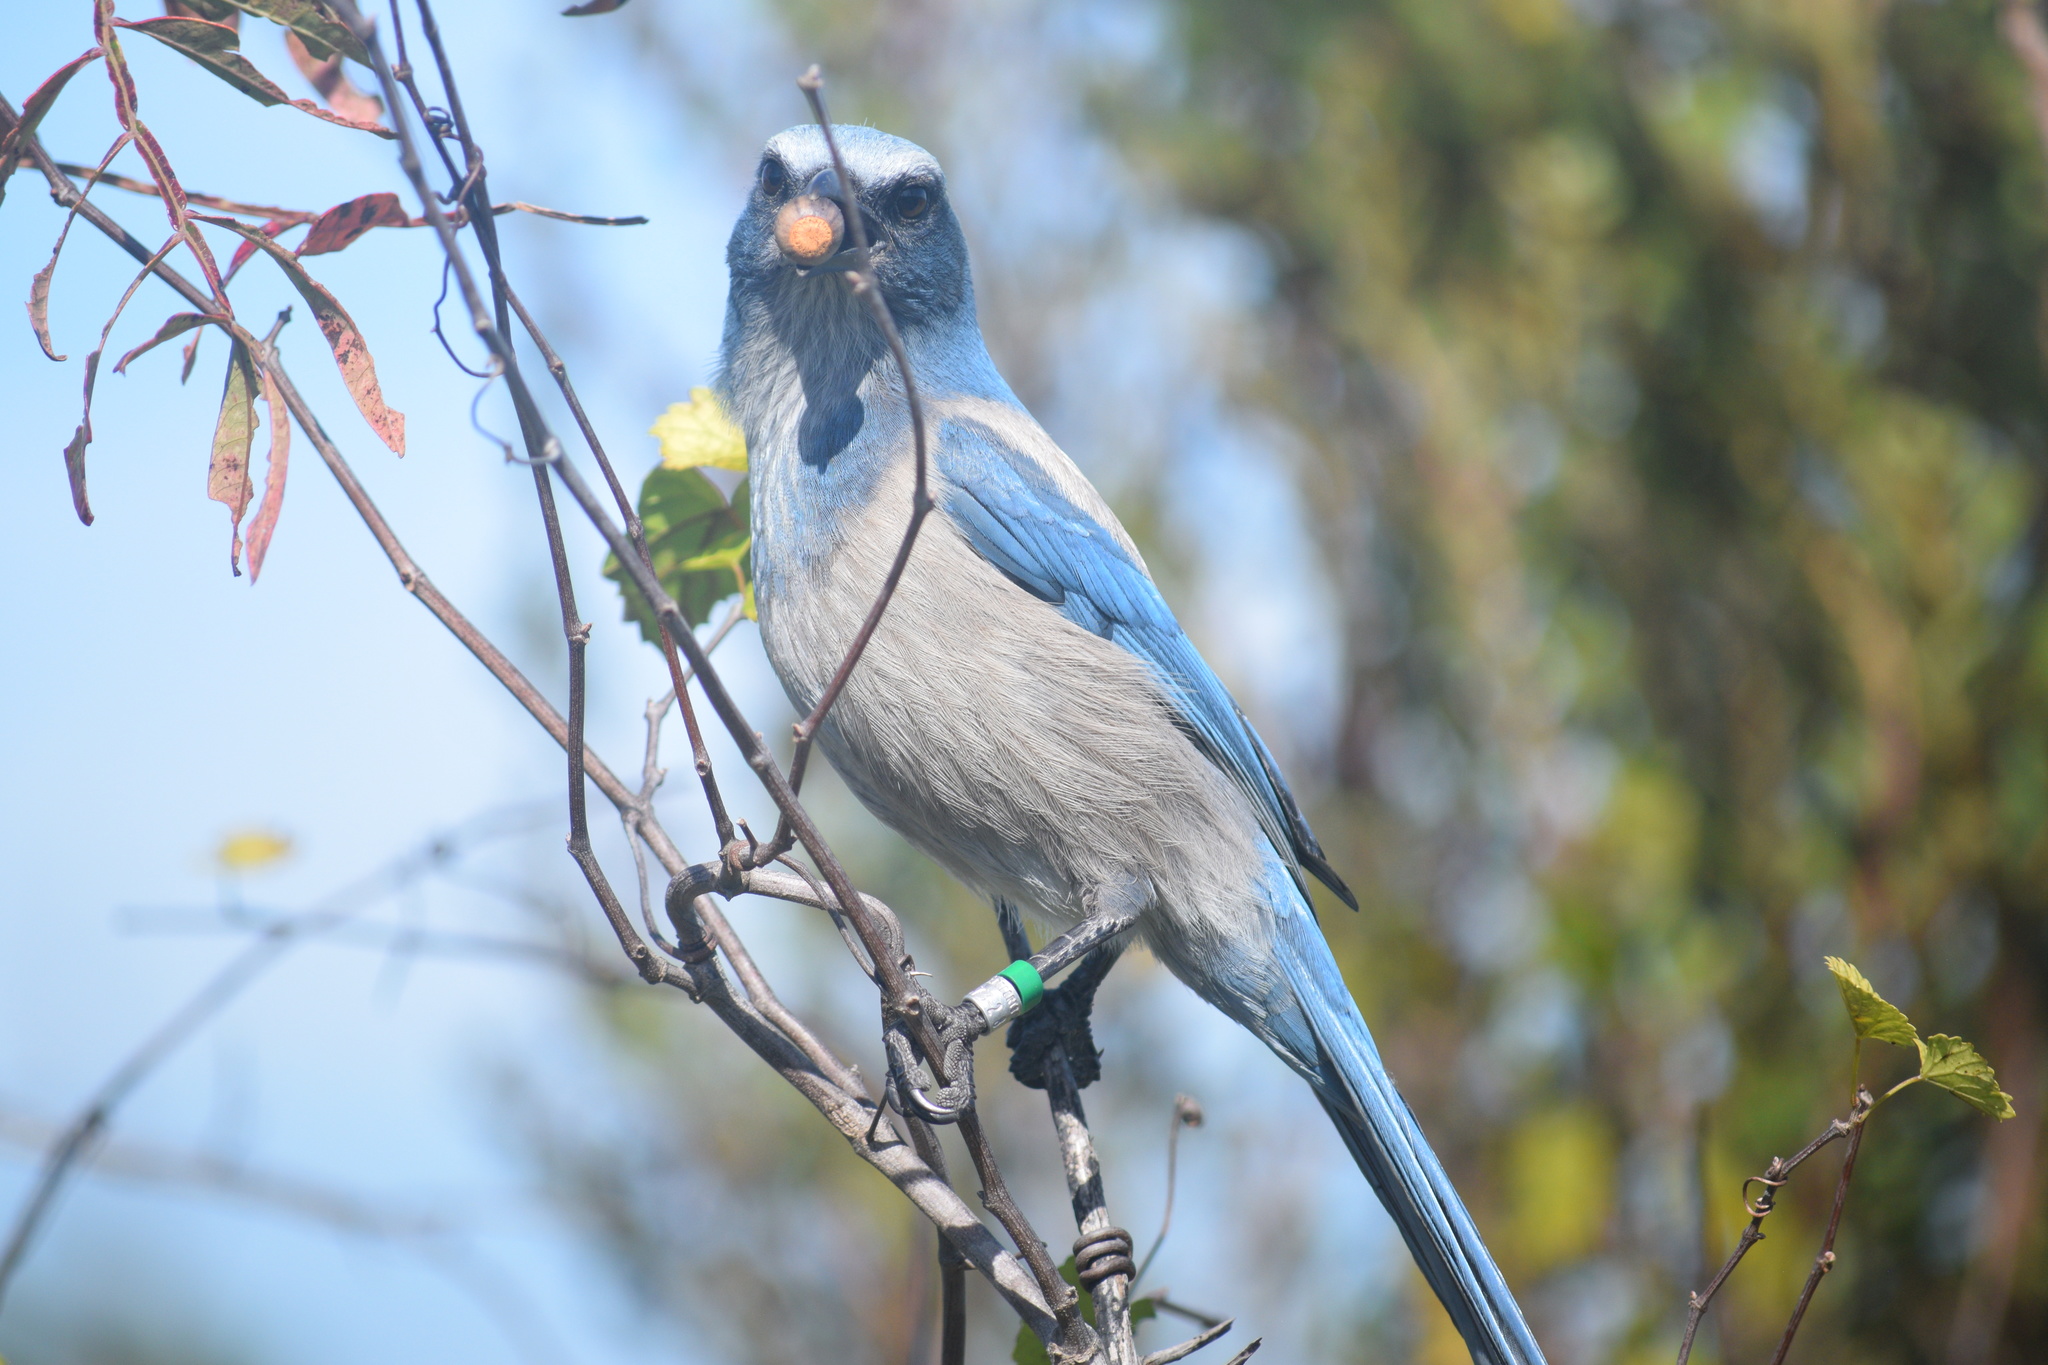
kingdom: Animalia
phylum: Chordata
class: Aves
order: Passeriformes
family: Corvidae
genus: Aphelocoma
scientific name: Aphelocoma coerulescens
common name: Florida scrub jay
